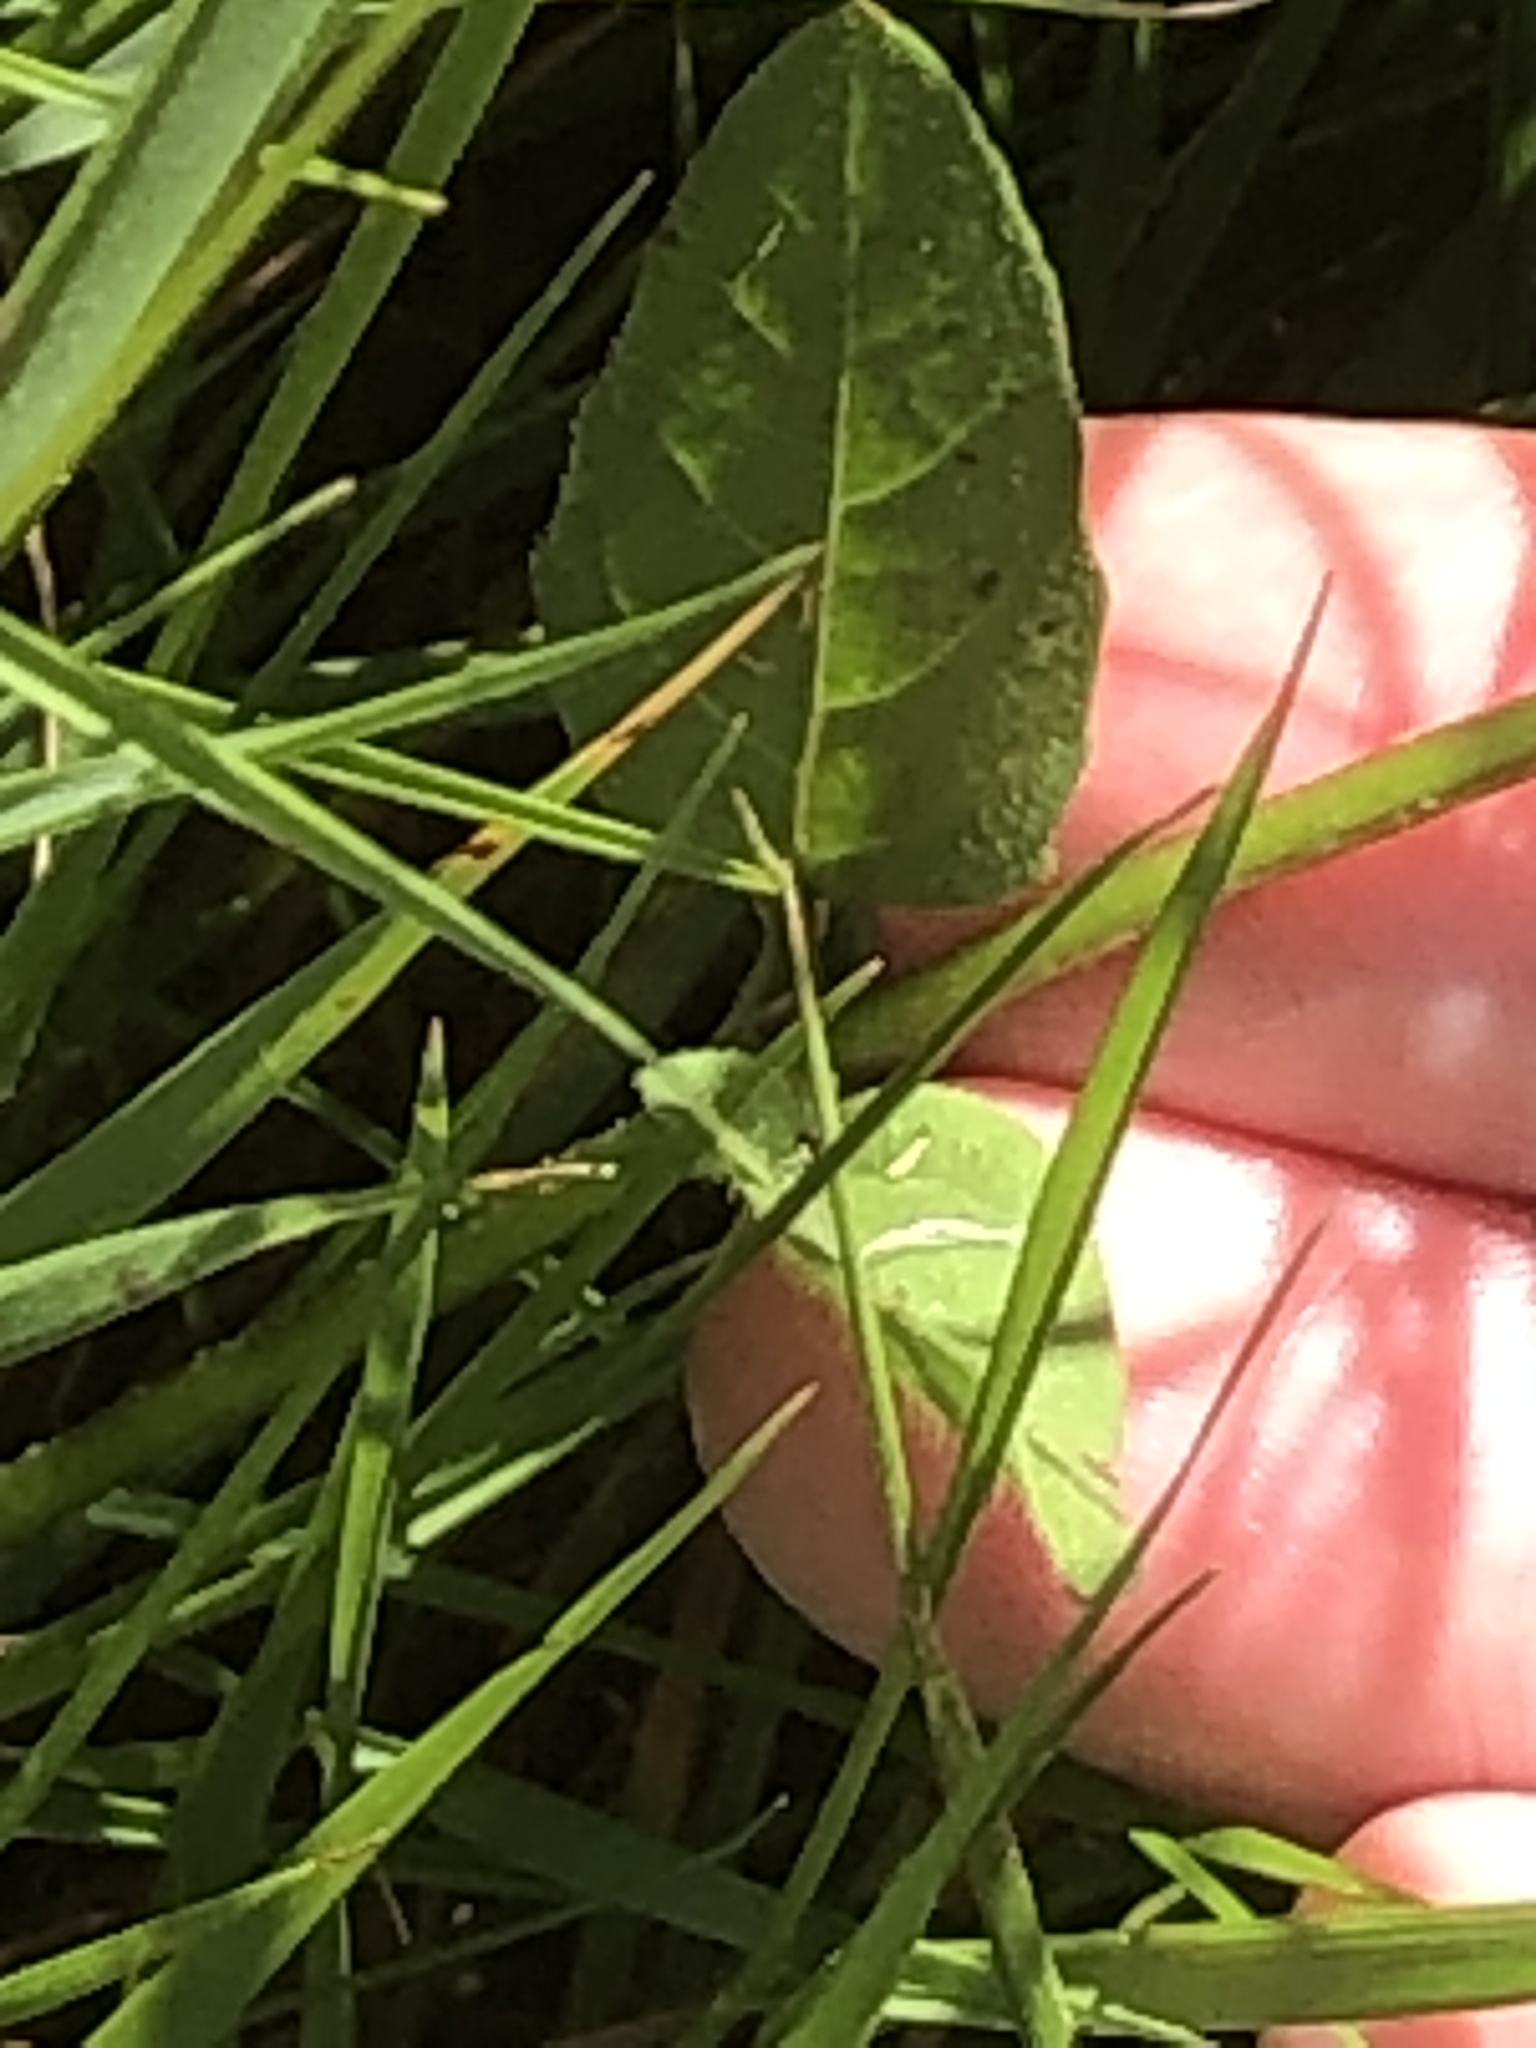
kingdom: Plantae
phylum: Tracheophyta
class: Magnoliopsida
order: Lamiales
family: Lamiaceae
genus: Prunella
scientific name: Prunella vulgaris
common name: Heal-all
